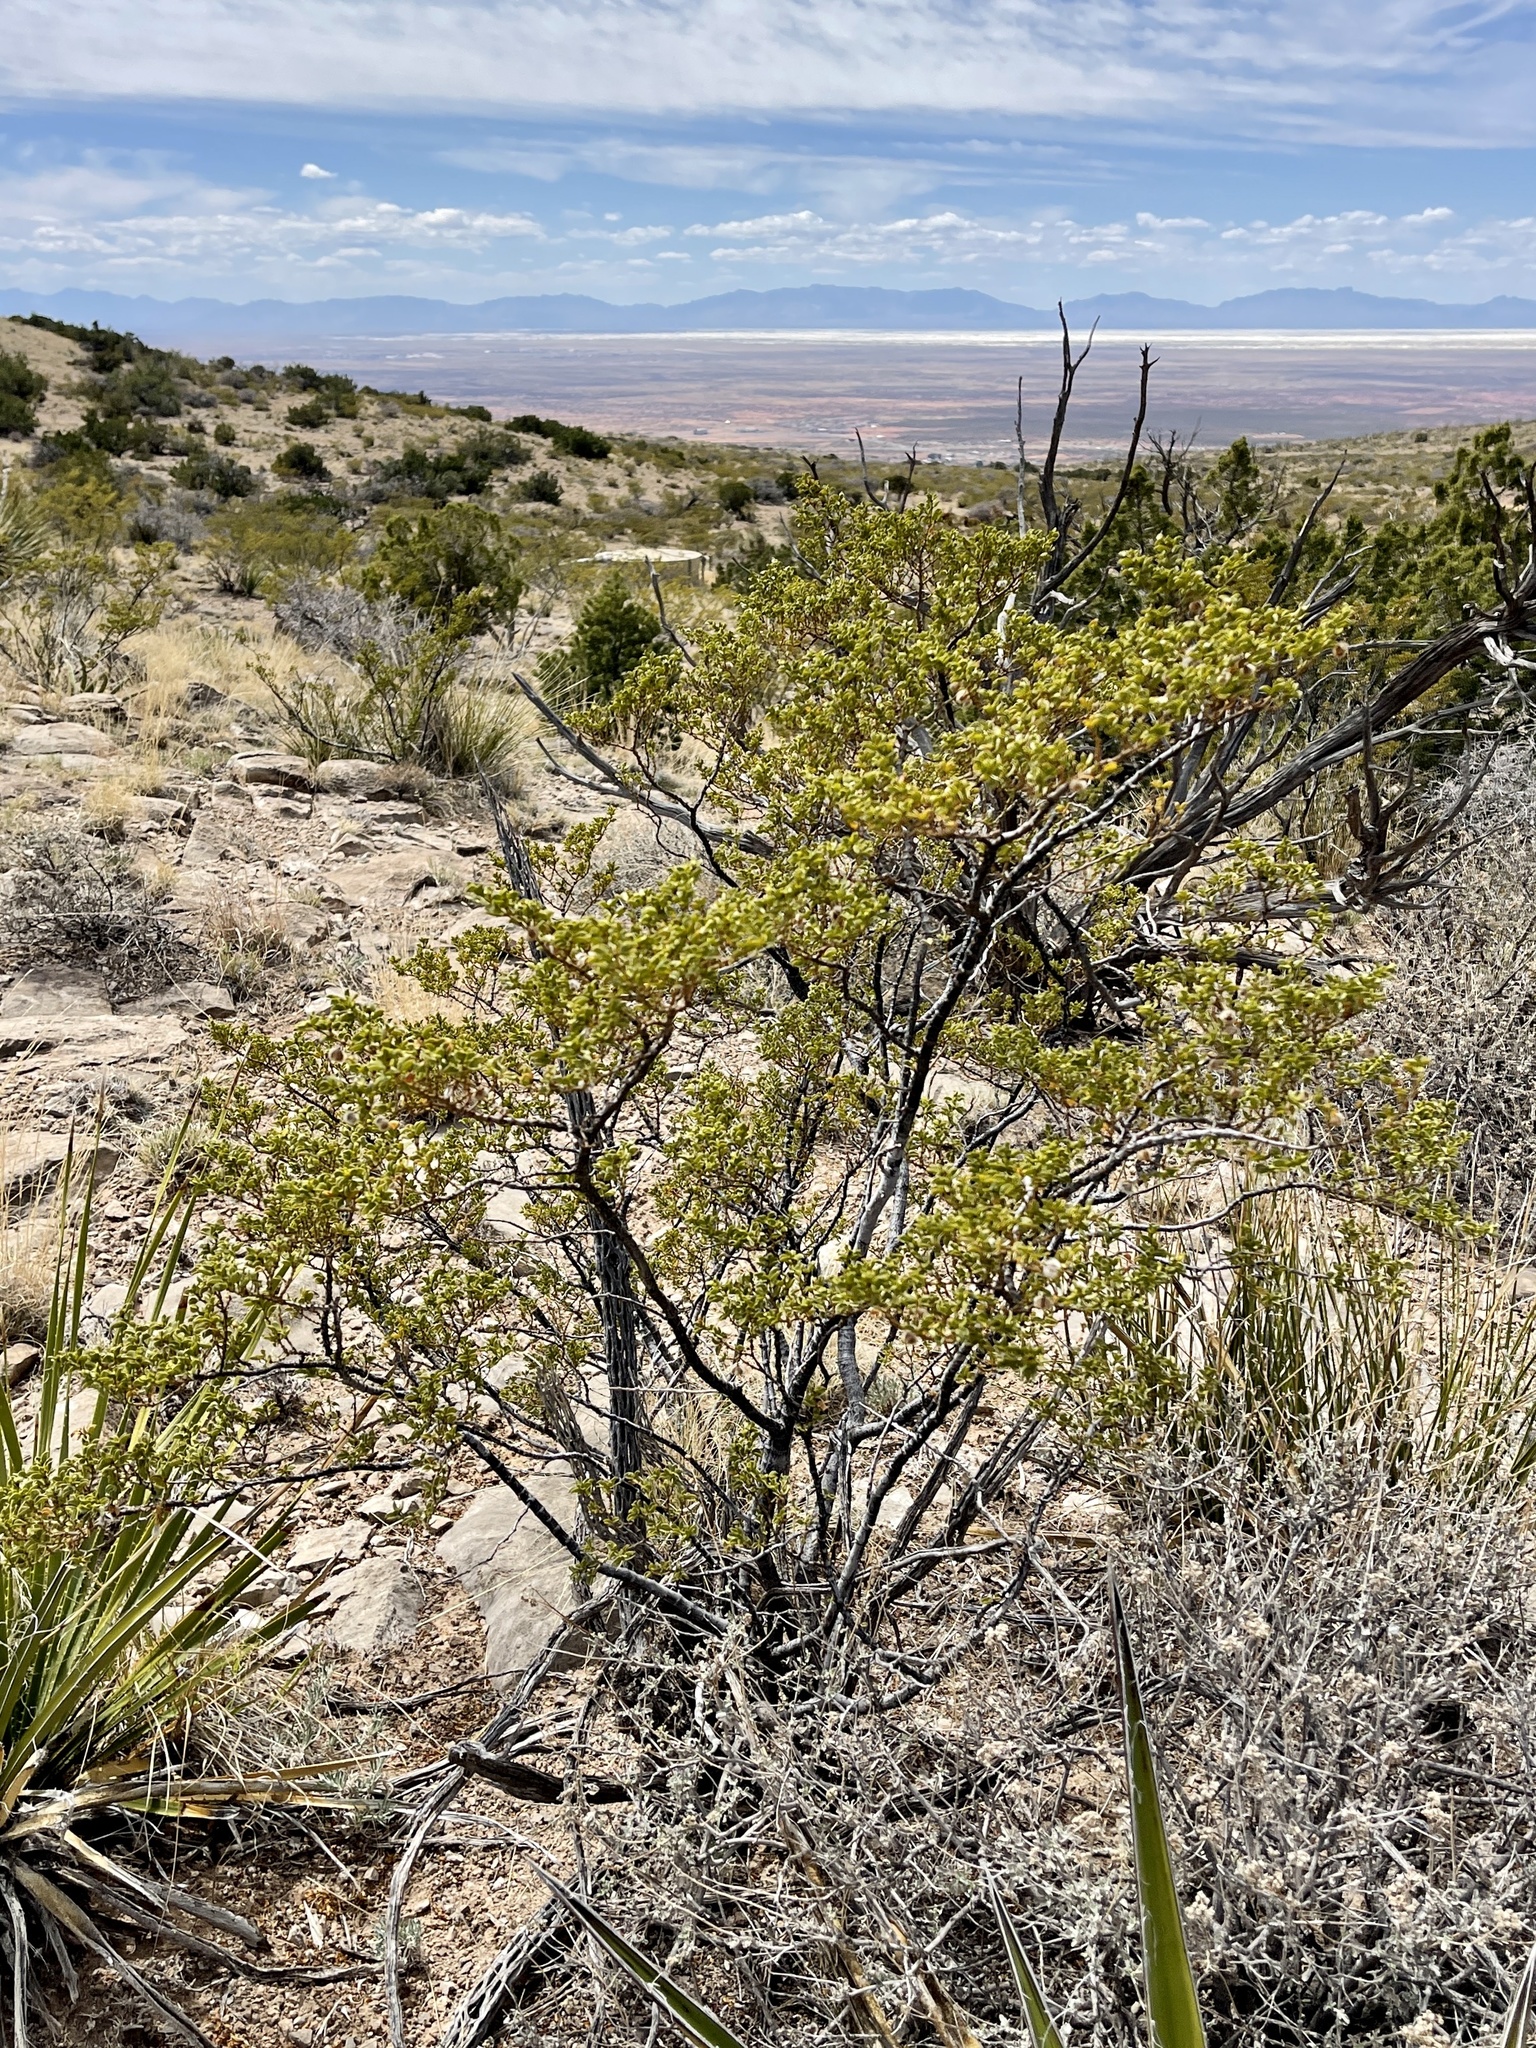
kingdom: Plantae
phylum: Tracheophyta
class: Magnoliopsida
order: Zygophyllales
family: Zygophyllaceae
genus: Larrea
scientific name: Larrea tridentata
